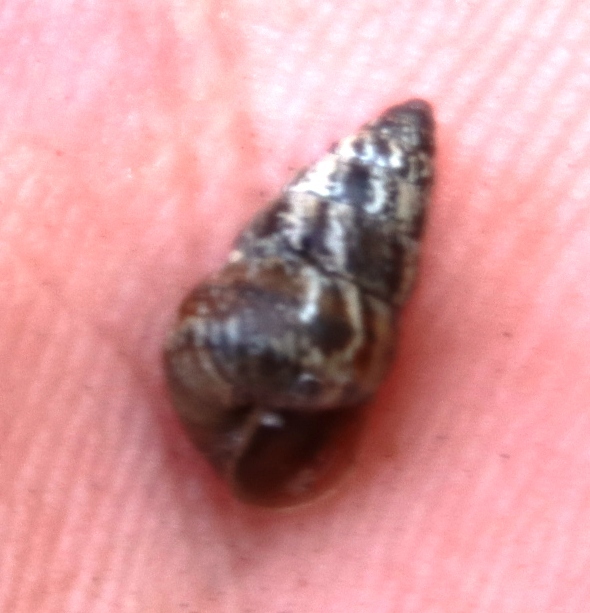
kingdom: Animalia
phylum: Mollusca
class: Gastropoda
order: Stylommatophora
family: Geomitridae
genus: Cochlicella
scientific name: Cochlicella barbara
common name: Potbellied helicellid
